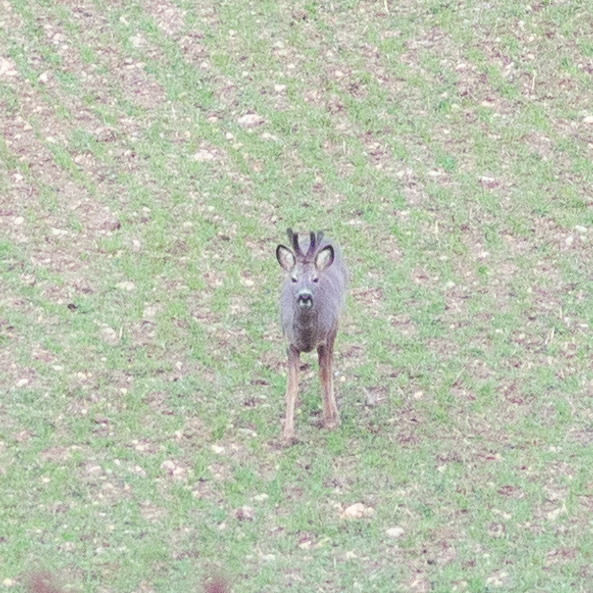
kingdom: Animalia
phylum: Chordata
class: Mammalia
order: Artiodactyla
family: Cervidae
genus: Capreolus
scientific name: Capreolus capreolus
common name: Western roe deer
